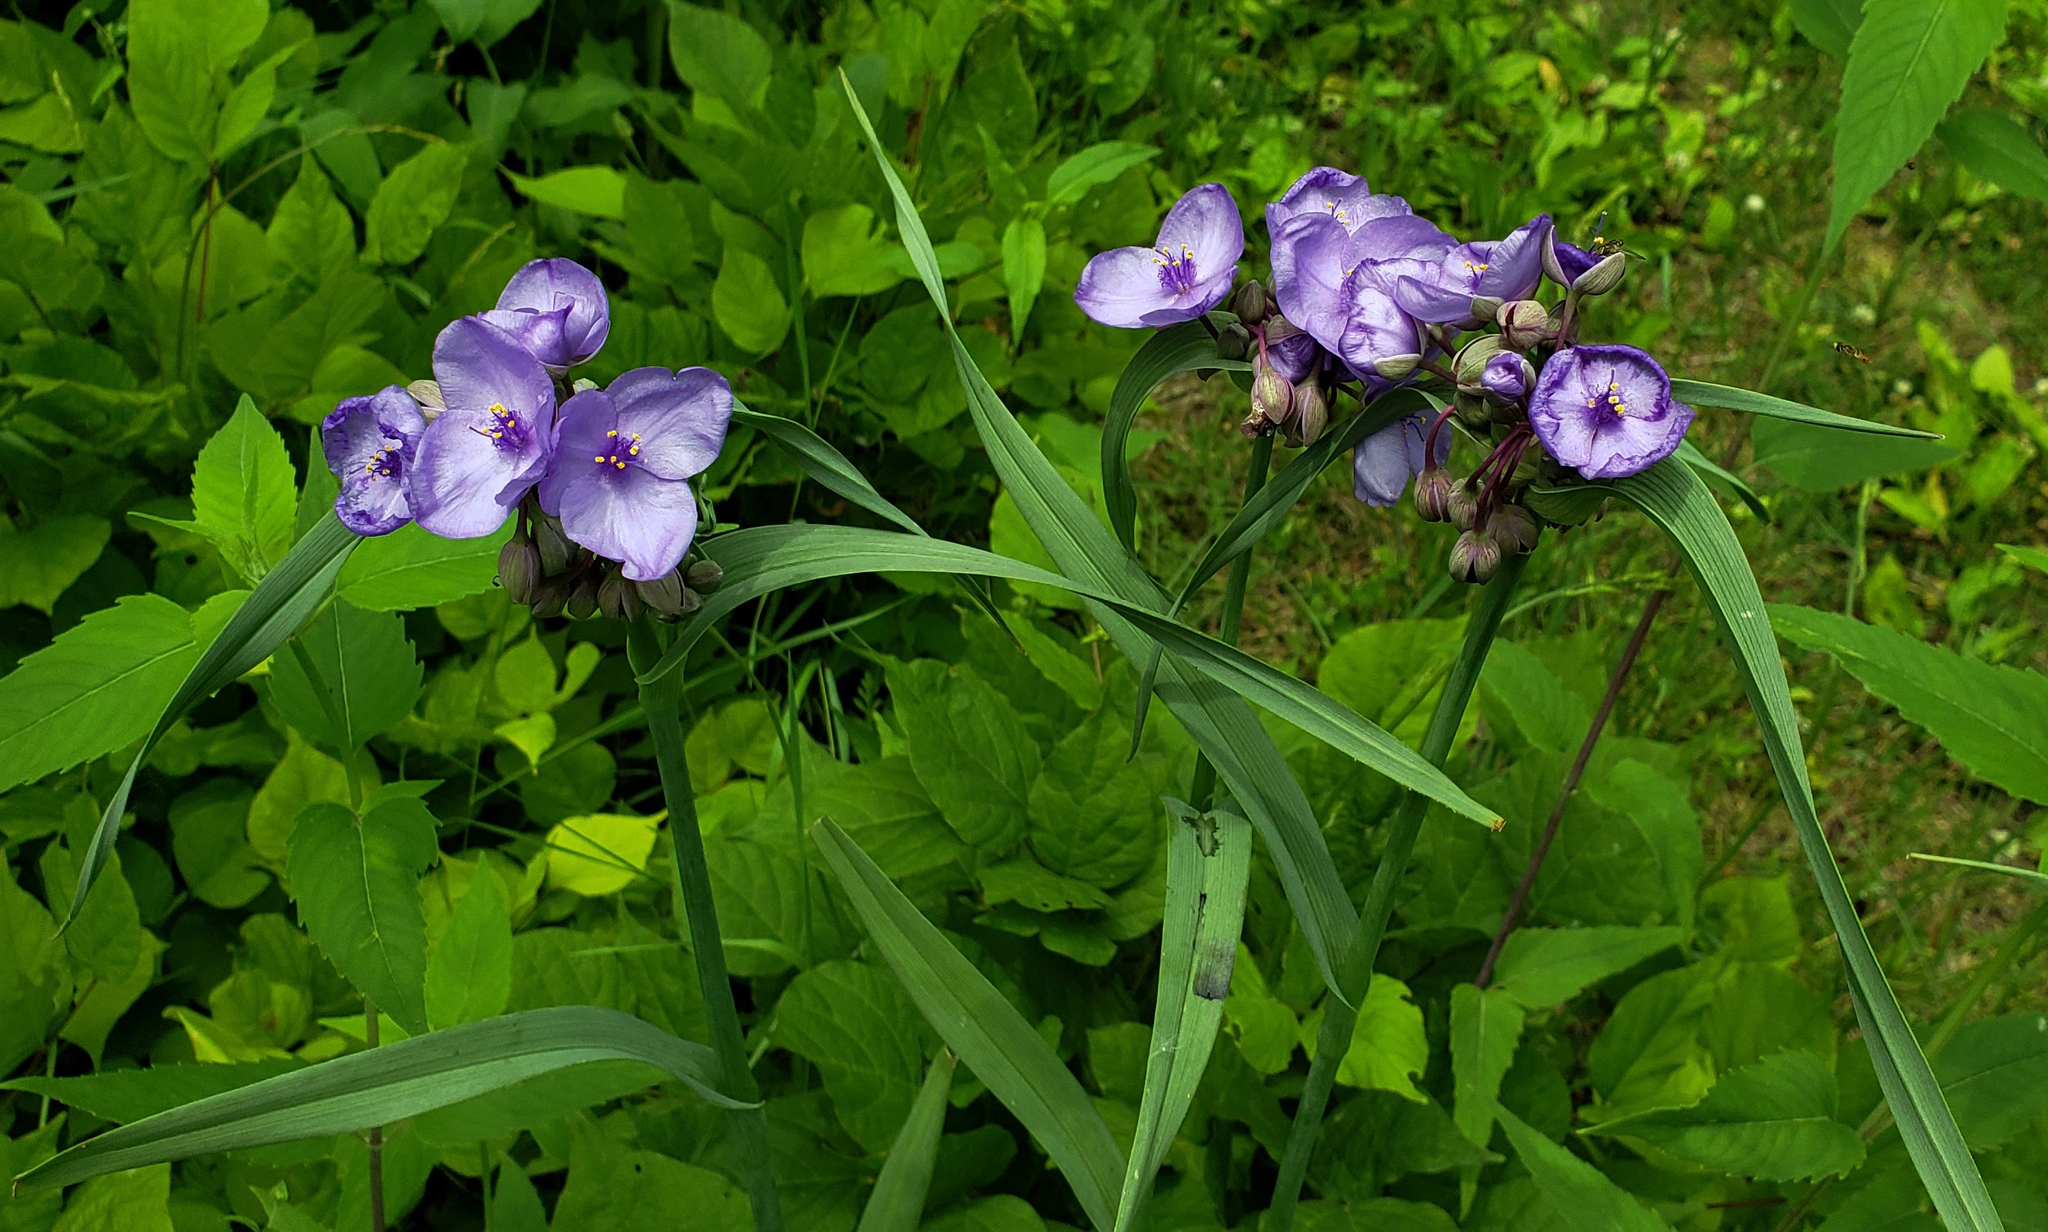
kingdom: Plantae
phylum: Tracheophyta
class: Liliopsida
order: Commelinales
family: Commelinaceae
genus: Tradescantia
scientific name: Tradescantia ohiensis
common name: Ohio spiderwort
